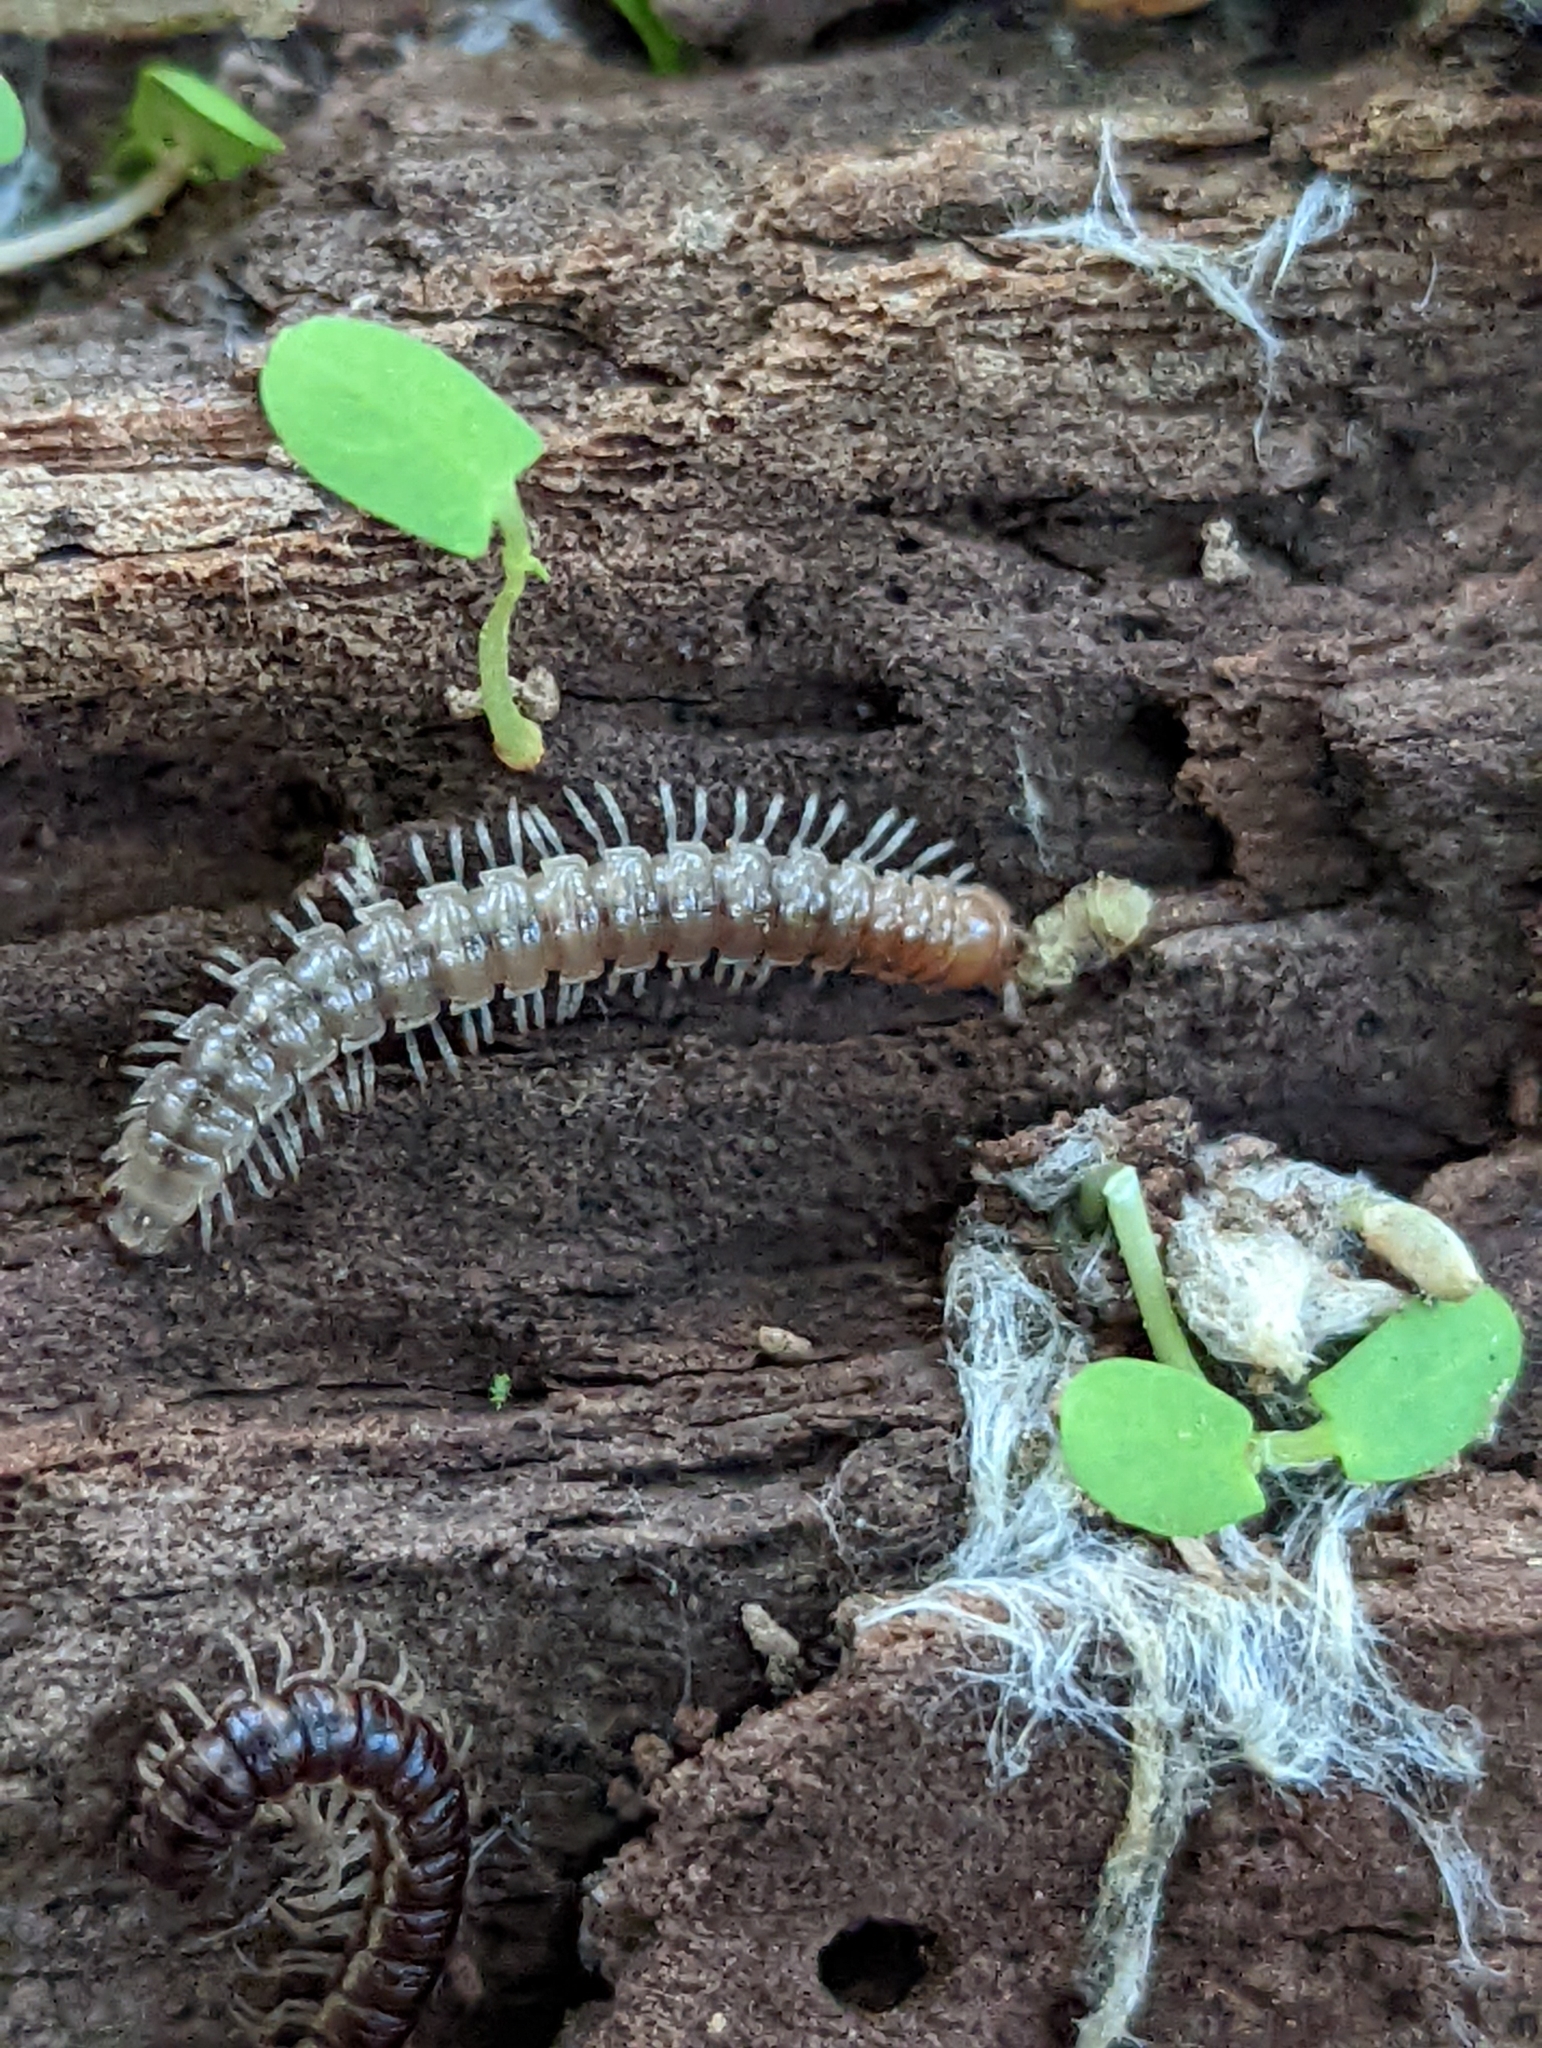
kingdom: Animalia
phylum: Arthropoda
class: Diplopoda
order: Polydesmida
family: Paradoxosomatidae
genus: Oxidus
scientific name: Oxidus gracilis
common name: Greenhouse millipede
